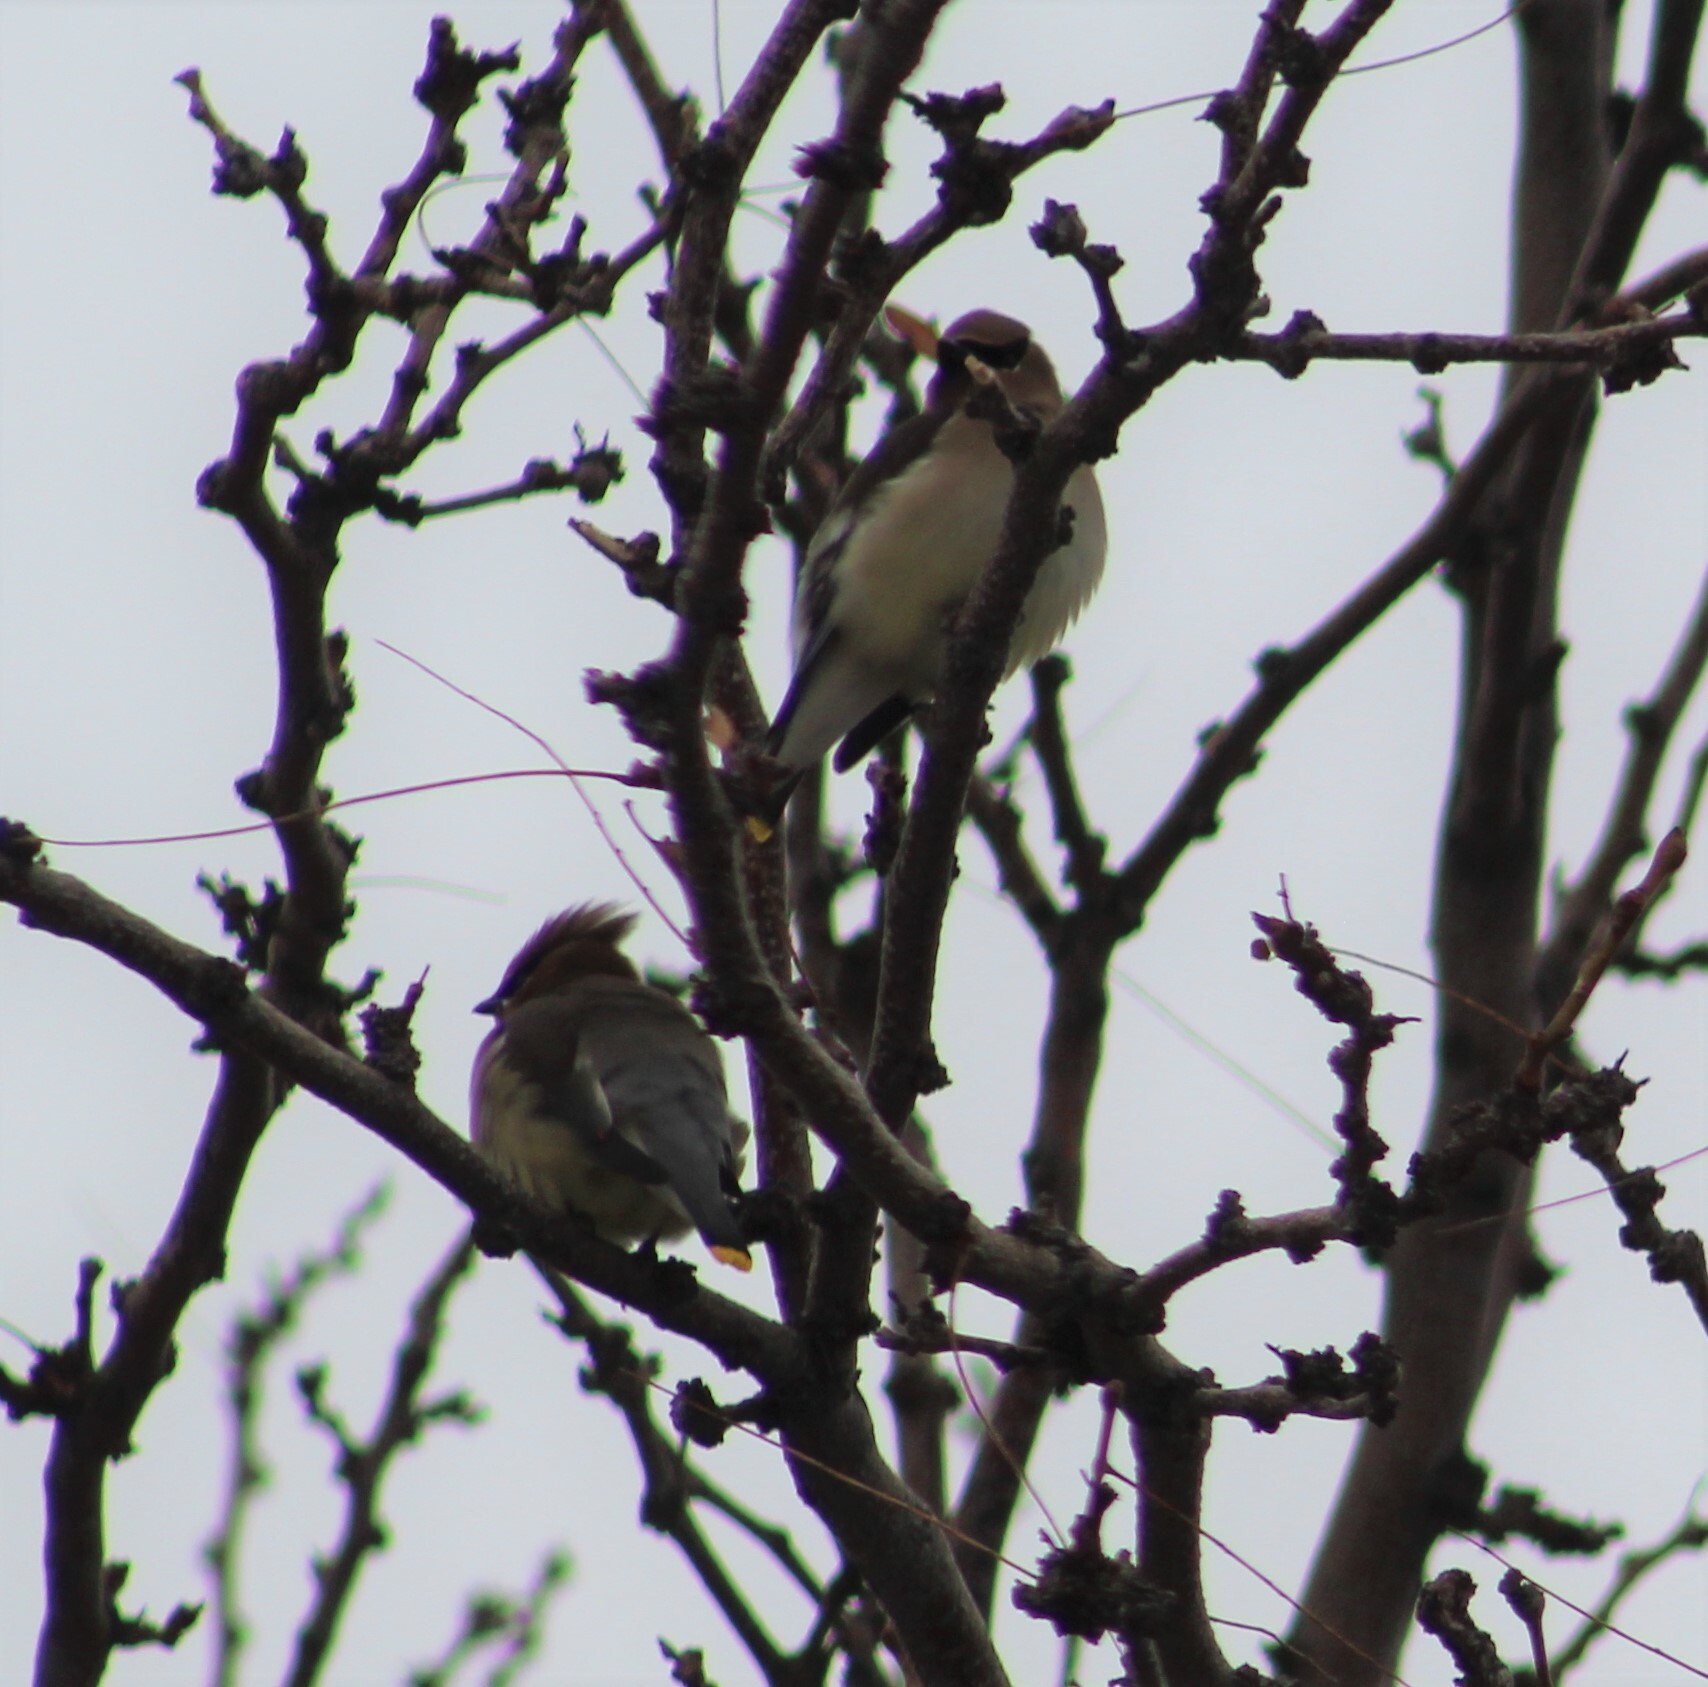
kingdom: Animalia
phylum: Chordata
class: Aves
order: Passeriformes
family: Bombycillidae
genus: Bombycilla
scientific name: Bombycilla cedrorum
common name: Cedar waxwing
